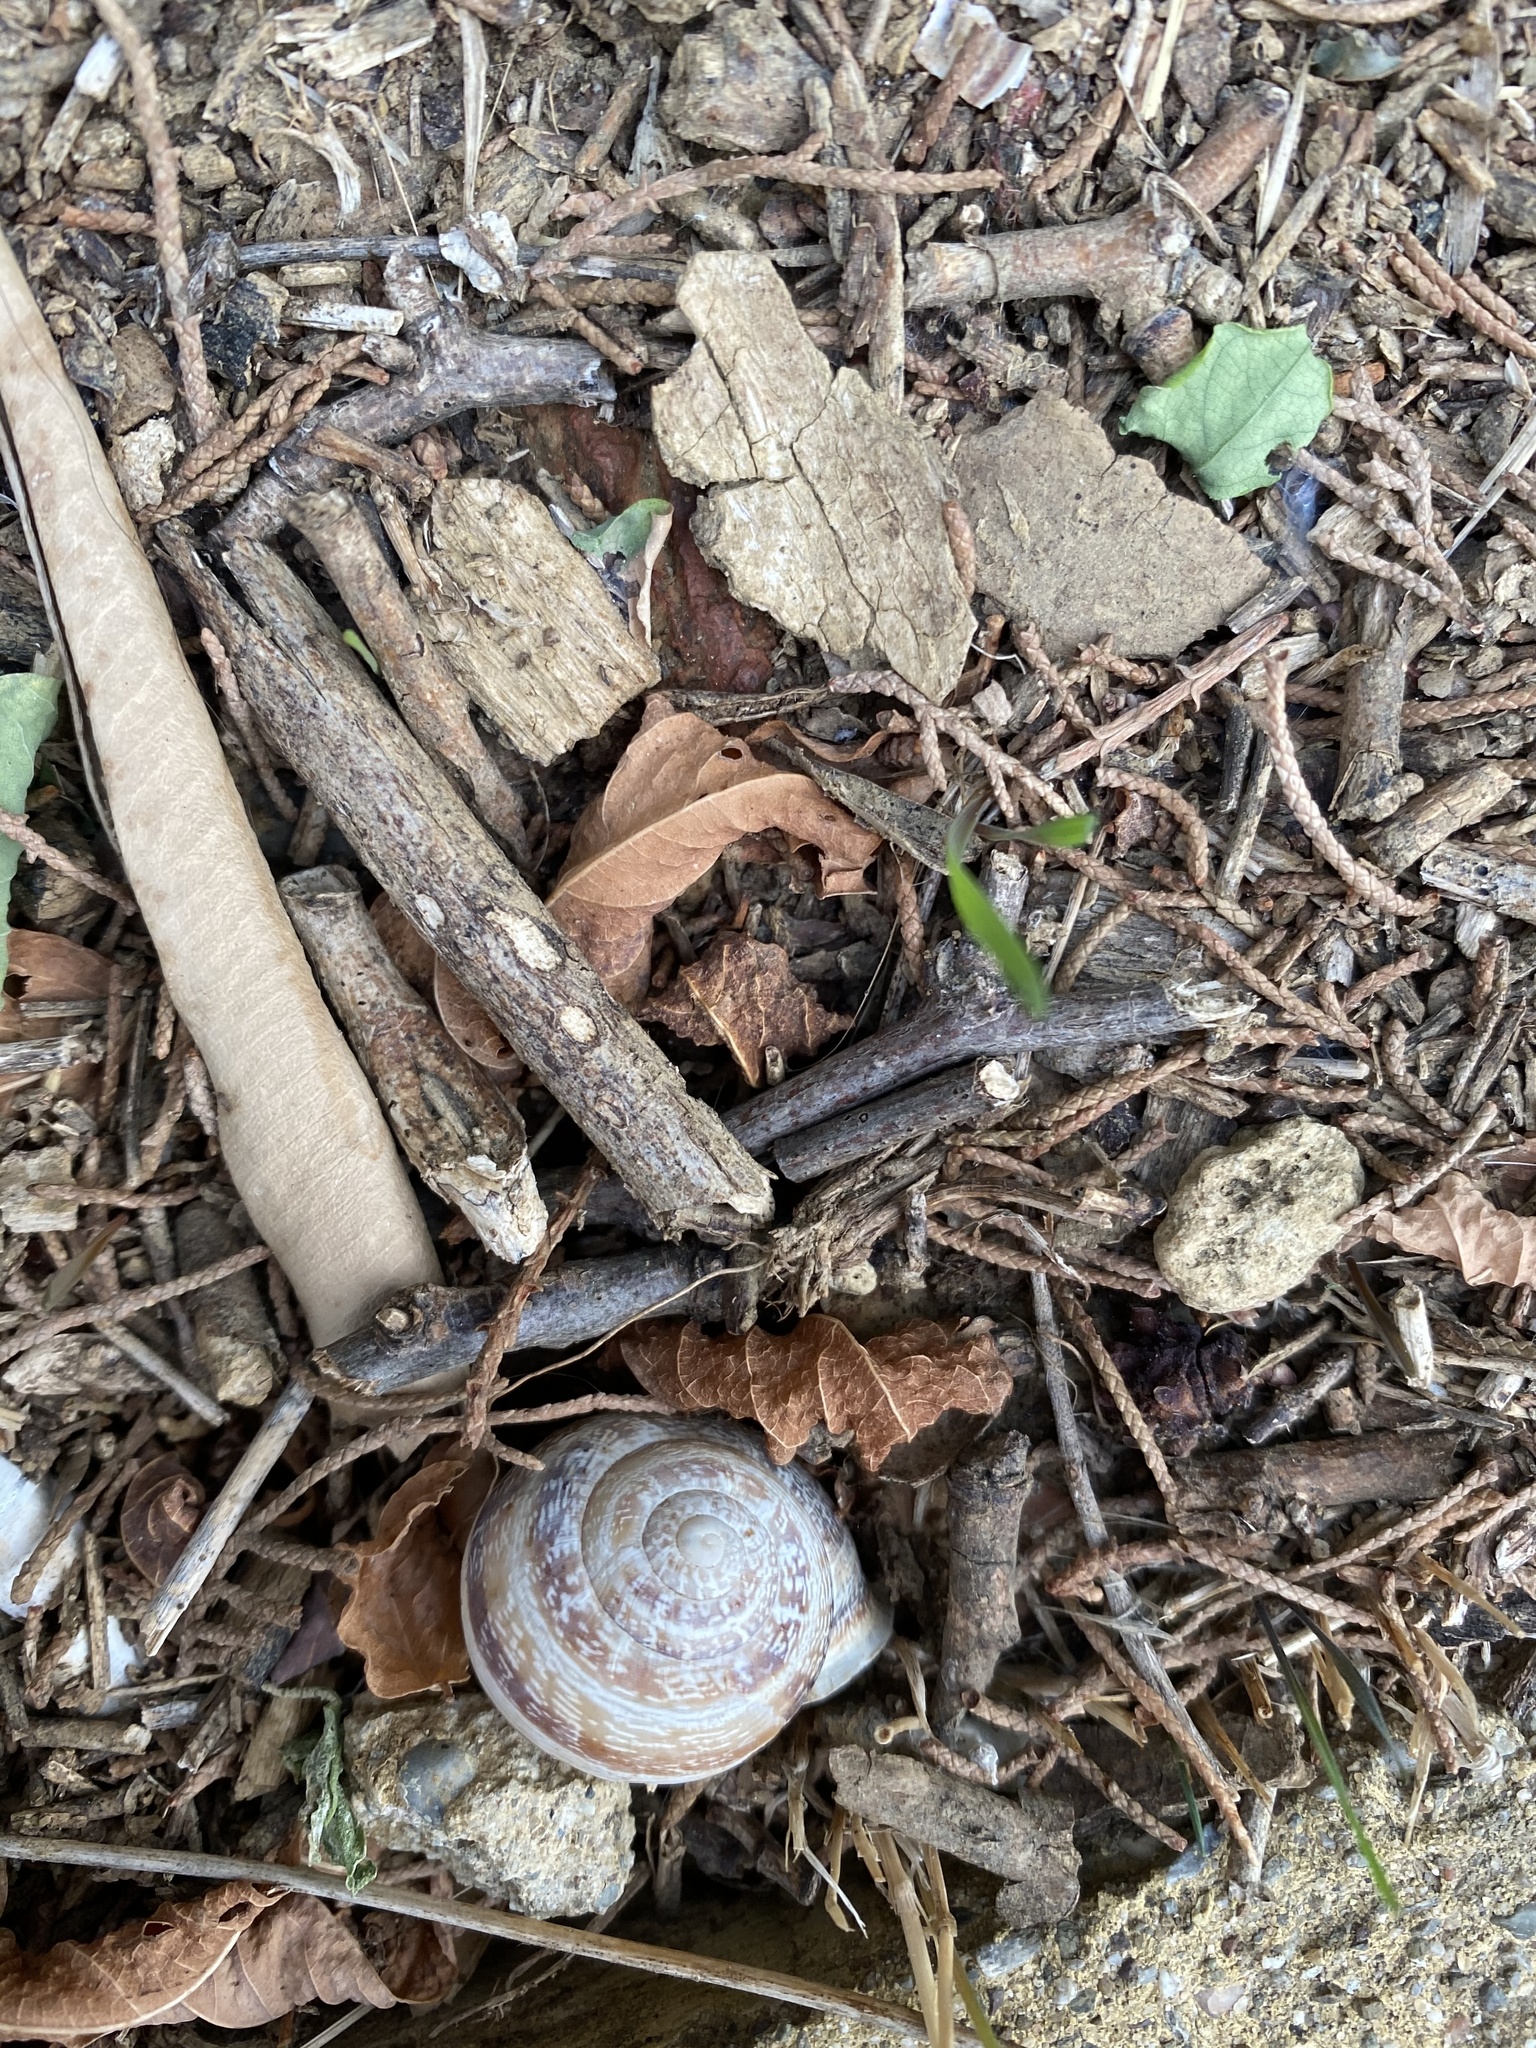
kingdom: Animalia
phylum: Mollusca
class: Gastropoda
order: Stylommatophora
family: Helicidae
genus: Eobania
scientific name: Eobania vermiculata
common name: Chocolateband snail
